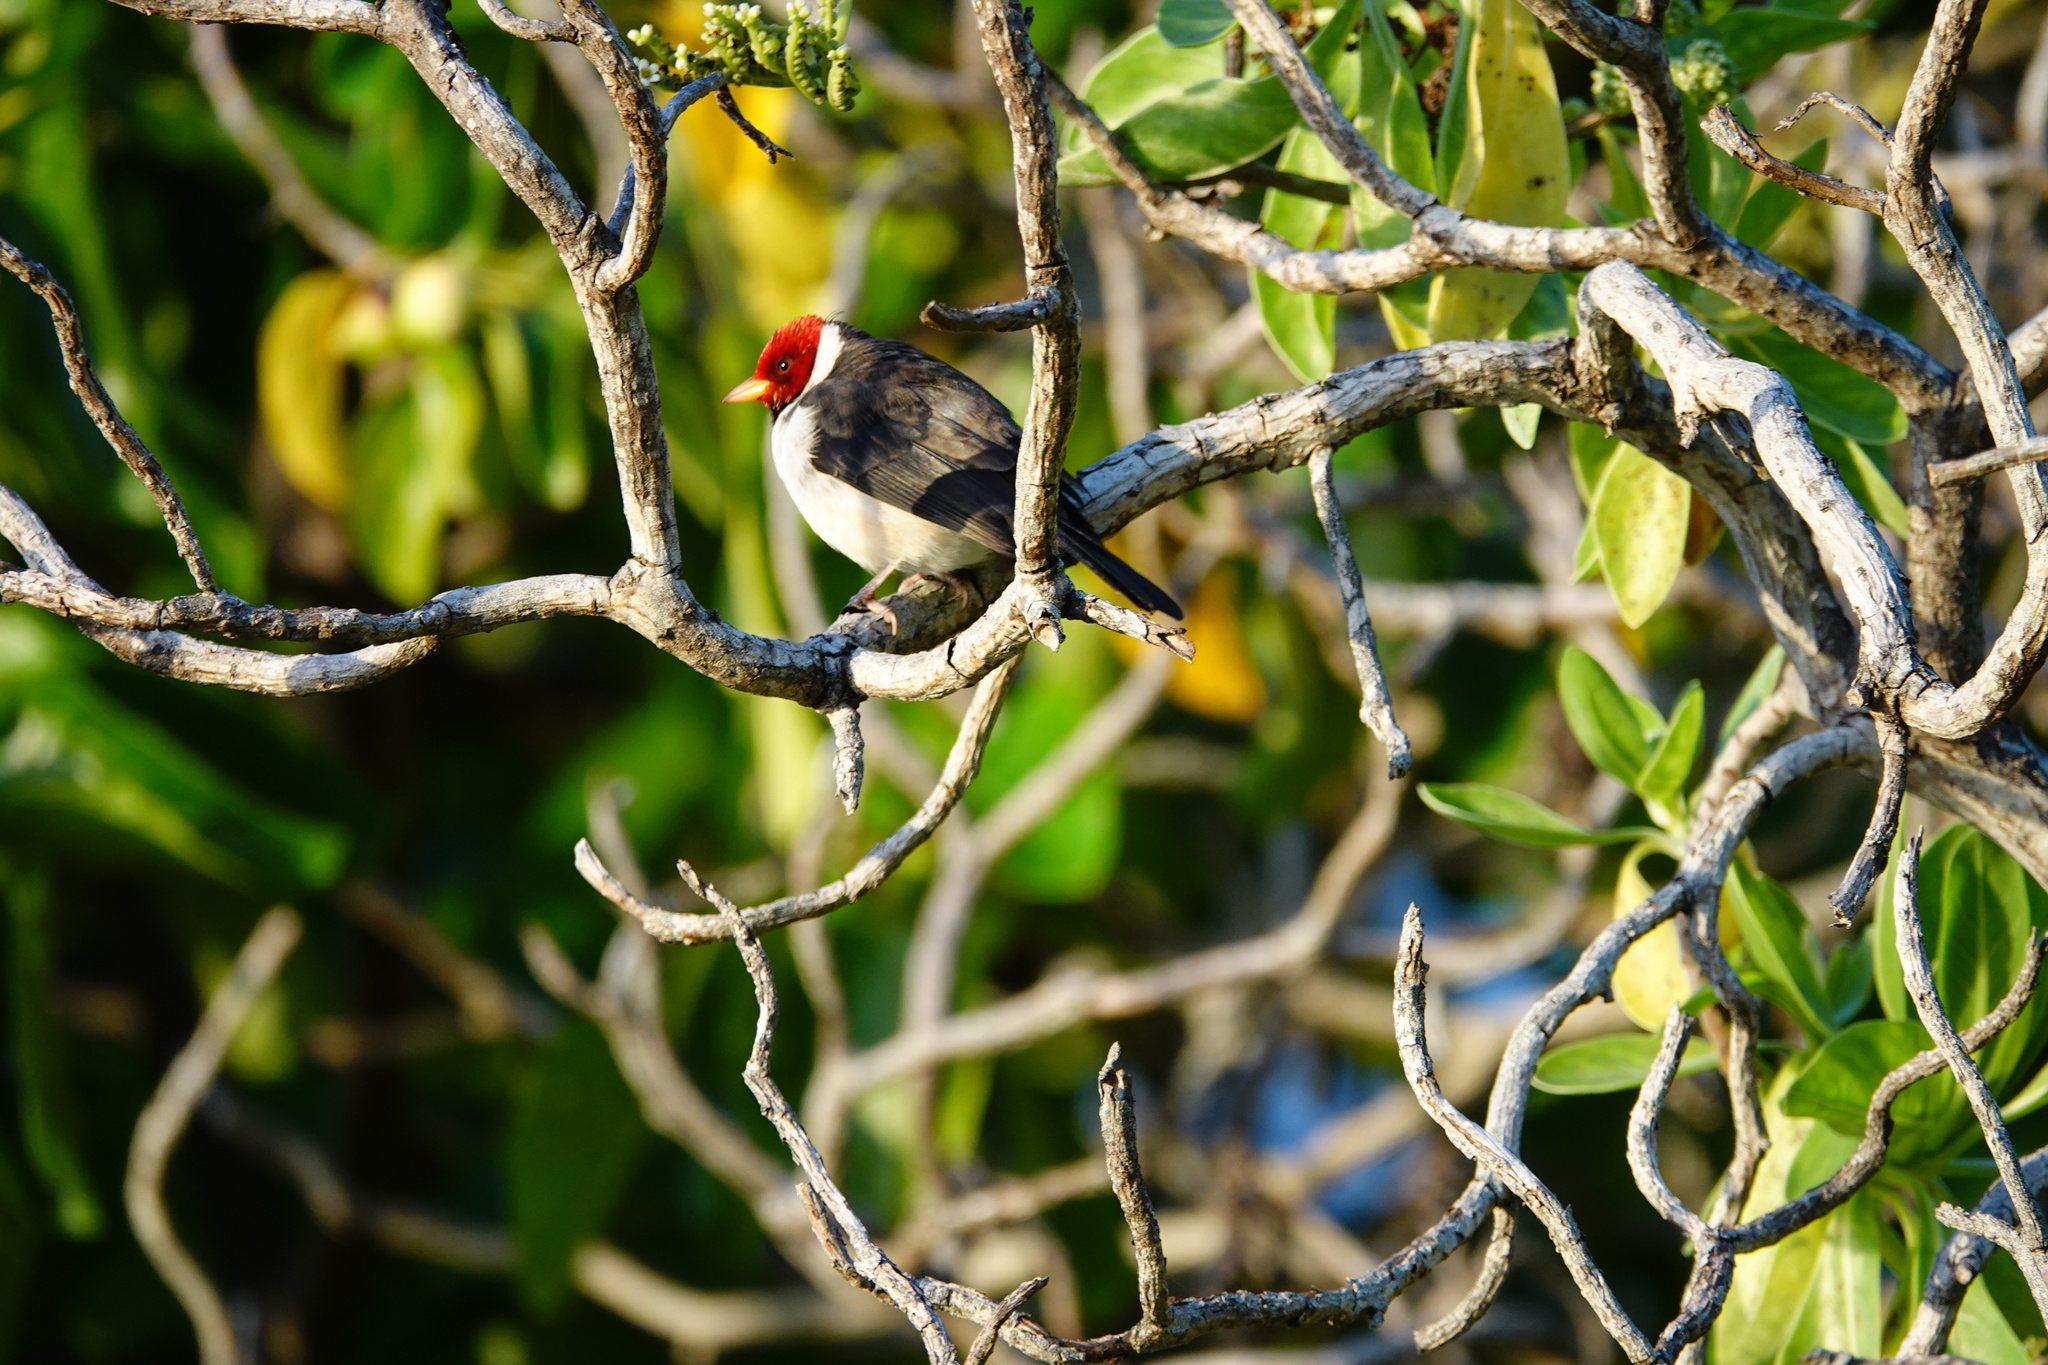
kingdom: Animalia
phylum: Chordata
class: Aves
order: Passeriformes
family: Thraupidae
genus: Paroaria
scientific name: Paroaria capitata
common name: Yellow-billed cardinal
